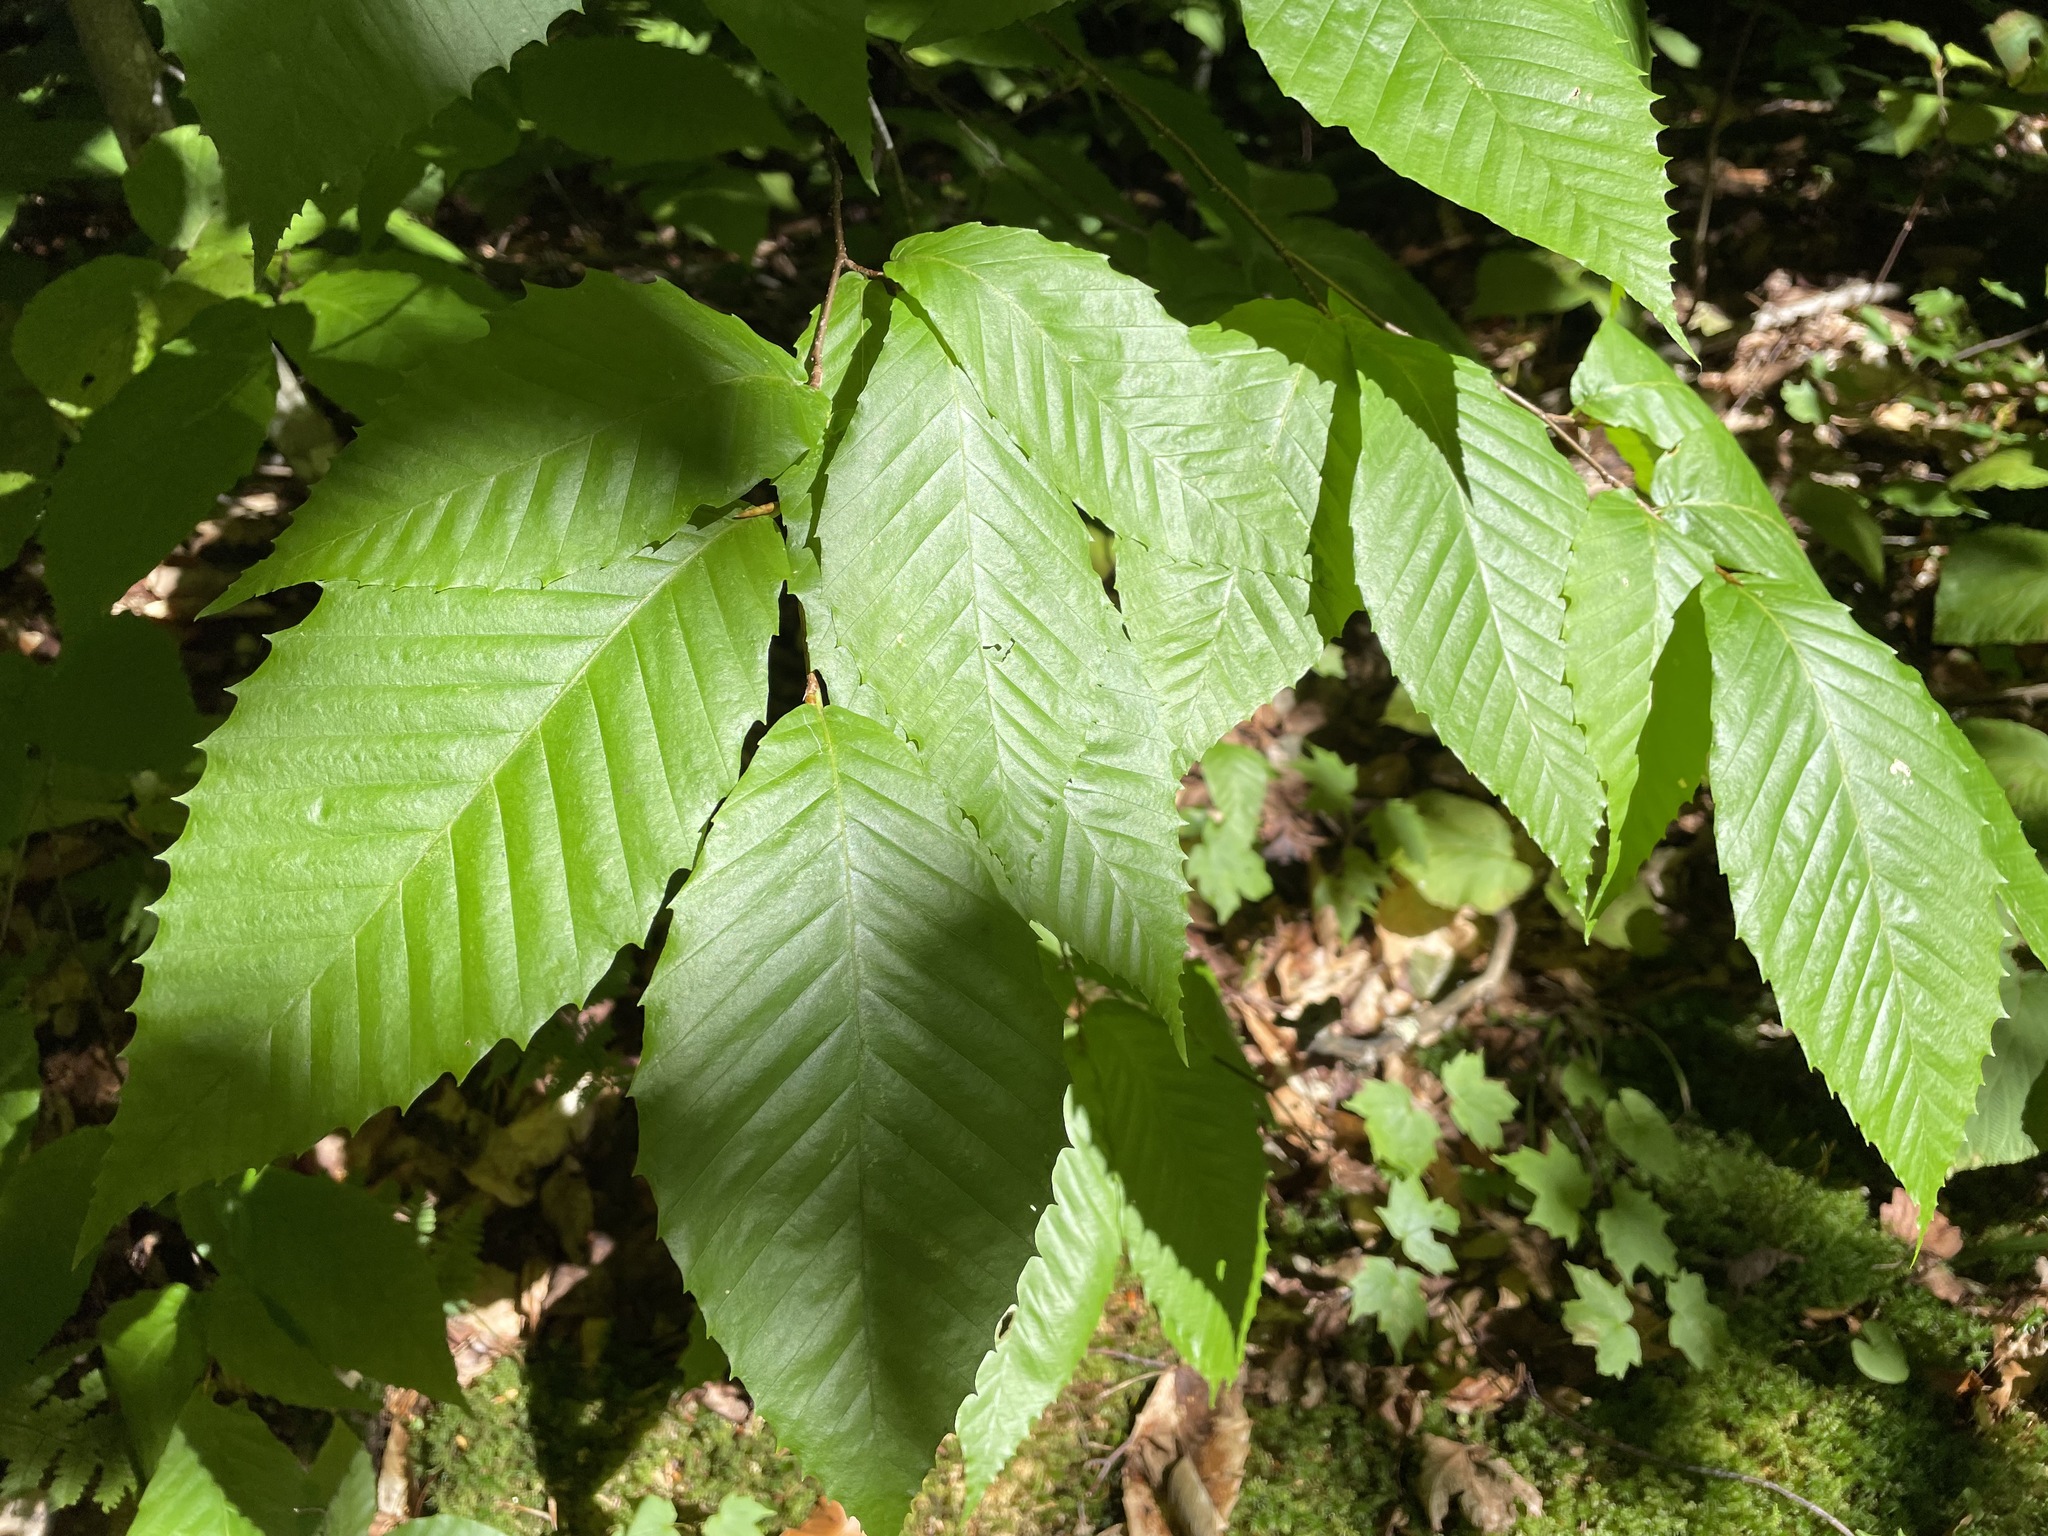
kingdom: Plantae
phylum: Tracheophyta
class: Magnoliopsida
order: Fagales
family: Fagaceae
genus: Fagus
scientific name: Fagus grandifolia
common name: American beech
